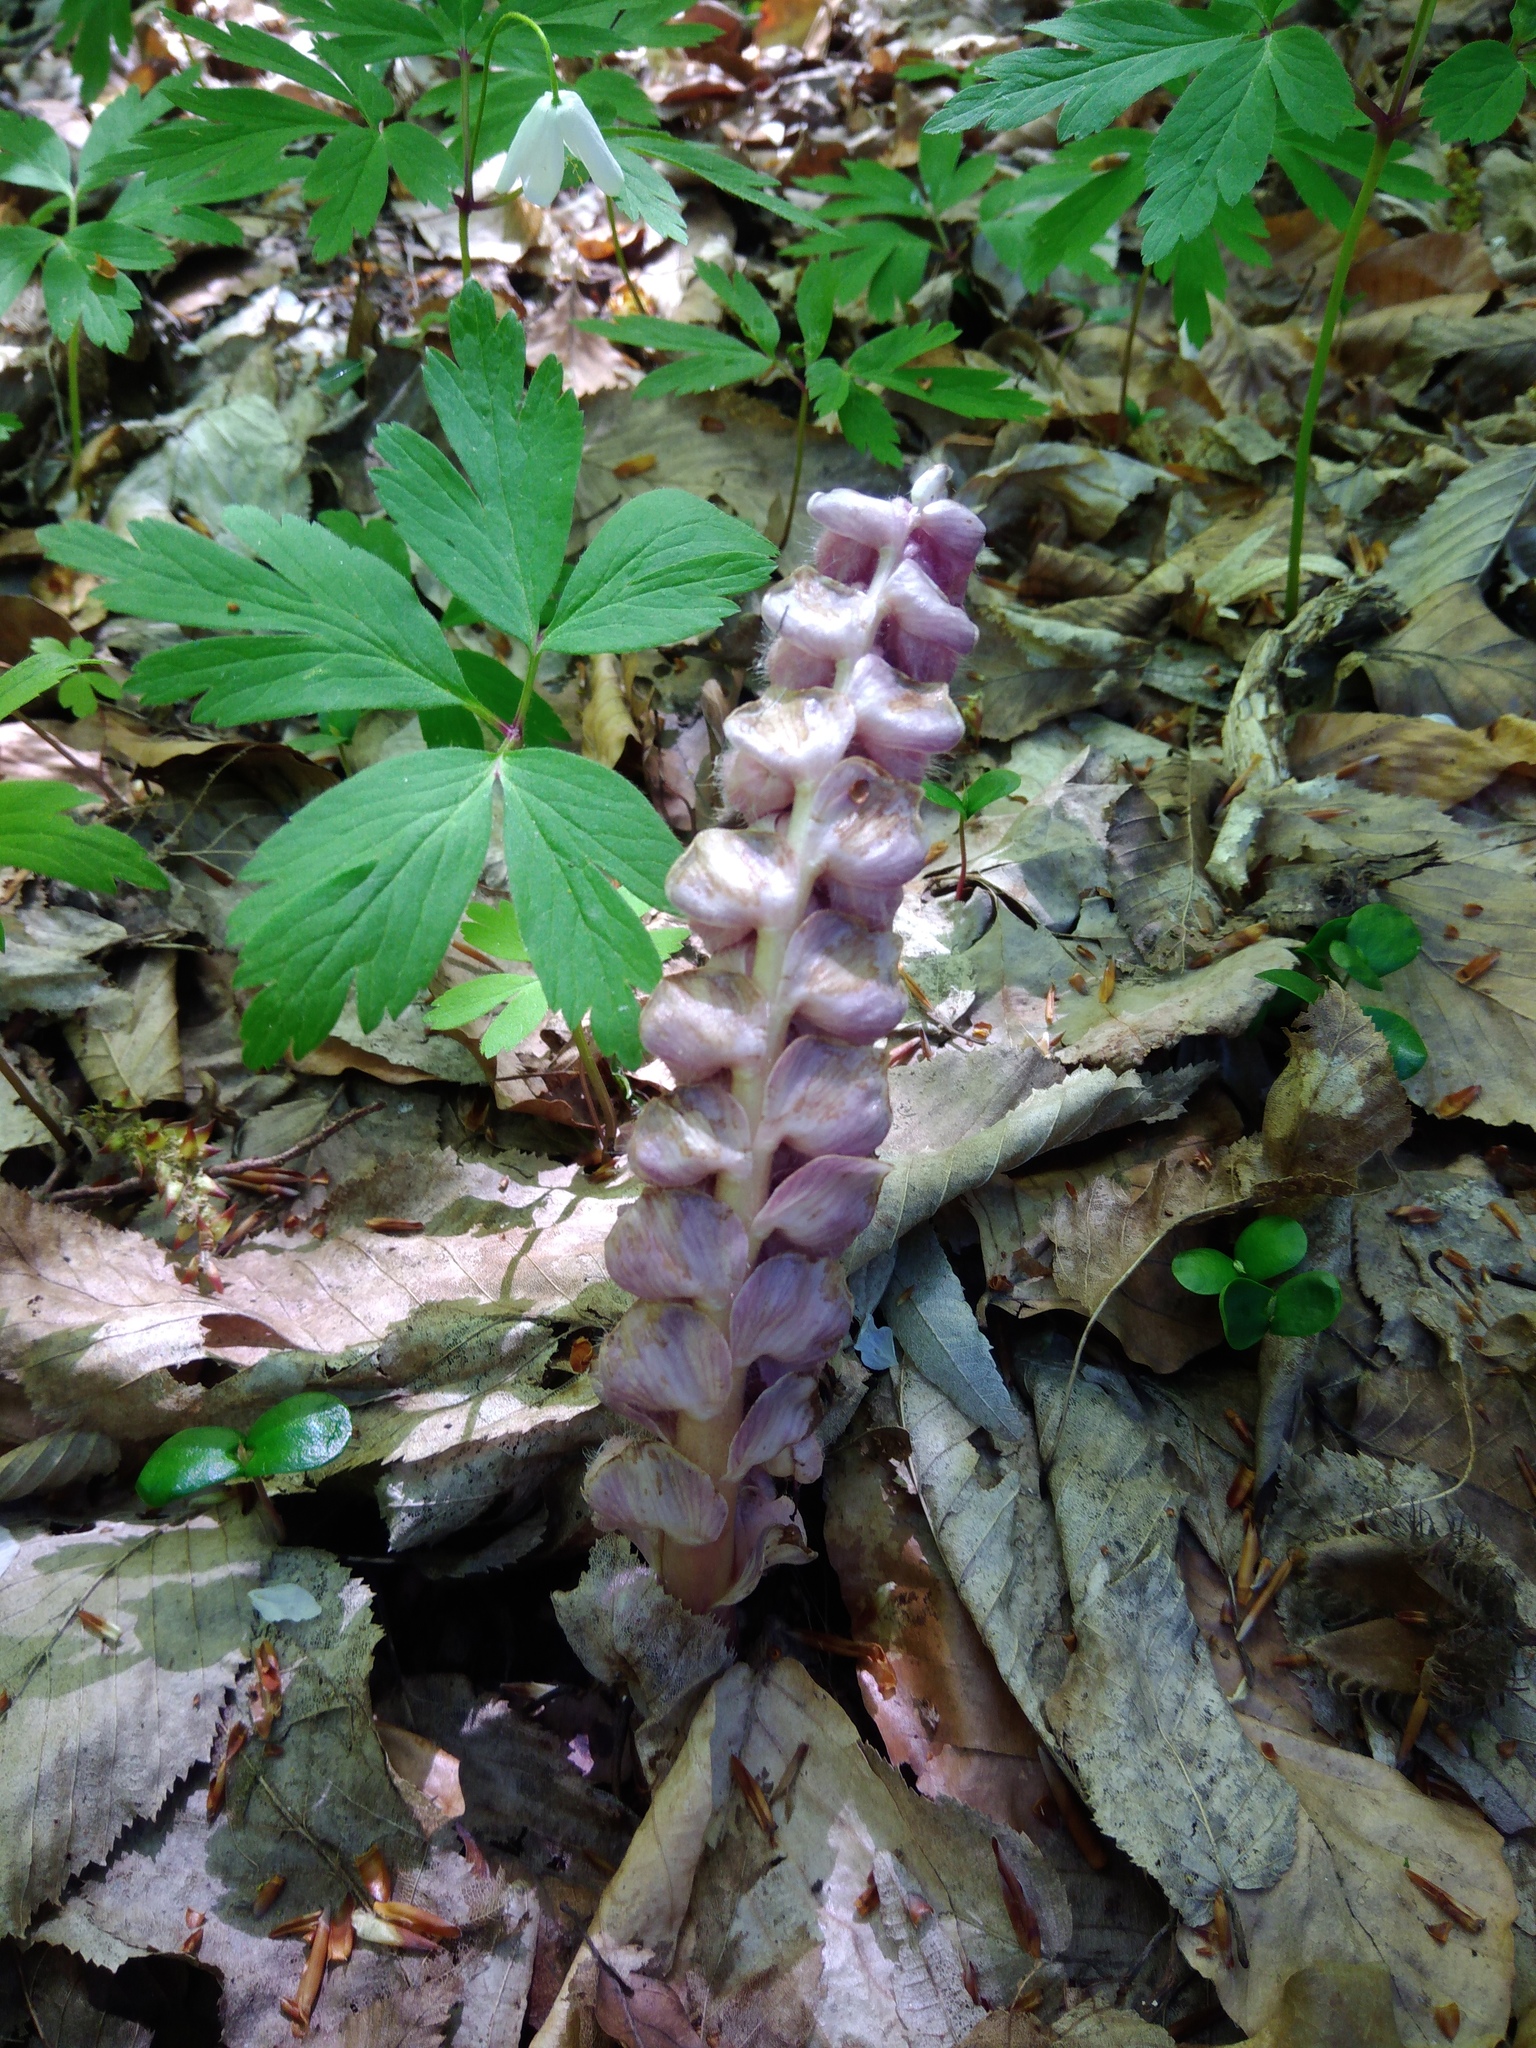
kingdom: Plantae
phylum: Tracheophyta
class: Magnoliopsida
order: Lamiales
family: Orobanchaceae
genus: Lathraea
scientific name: Lathraea squamaria
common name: Toothwort
